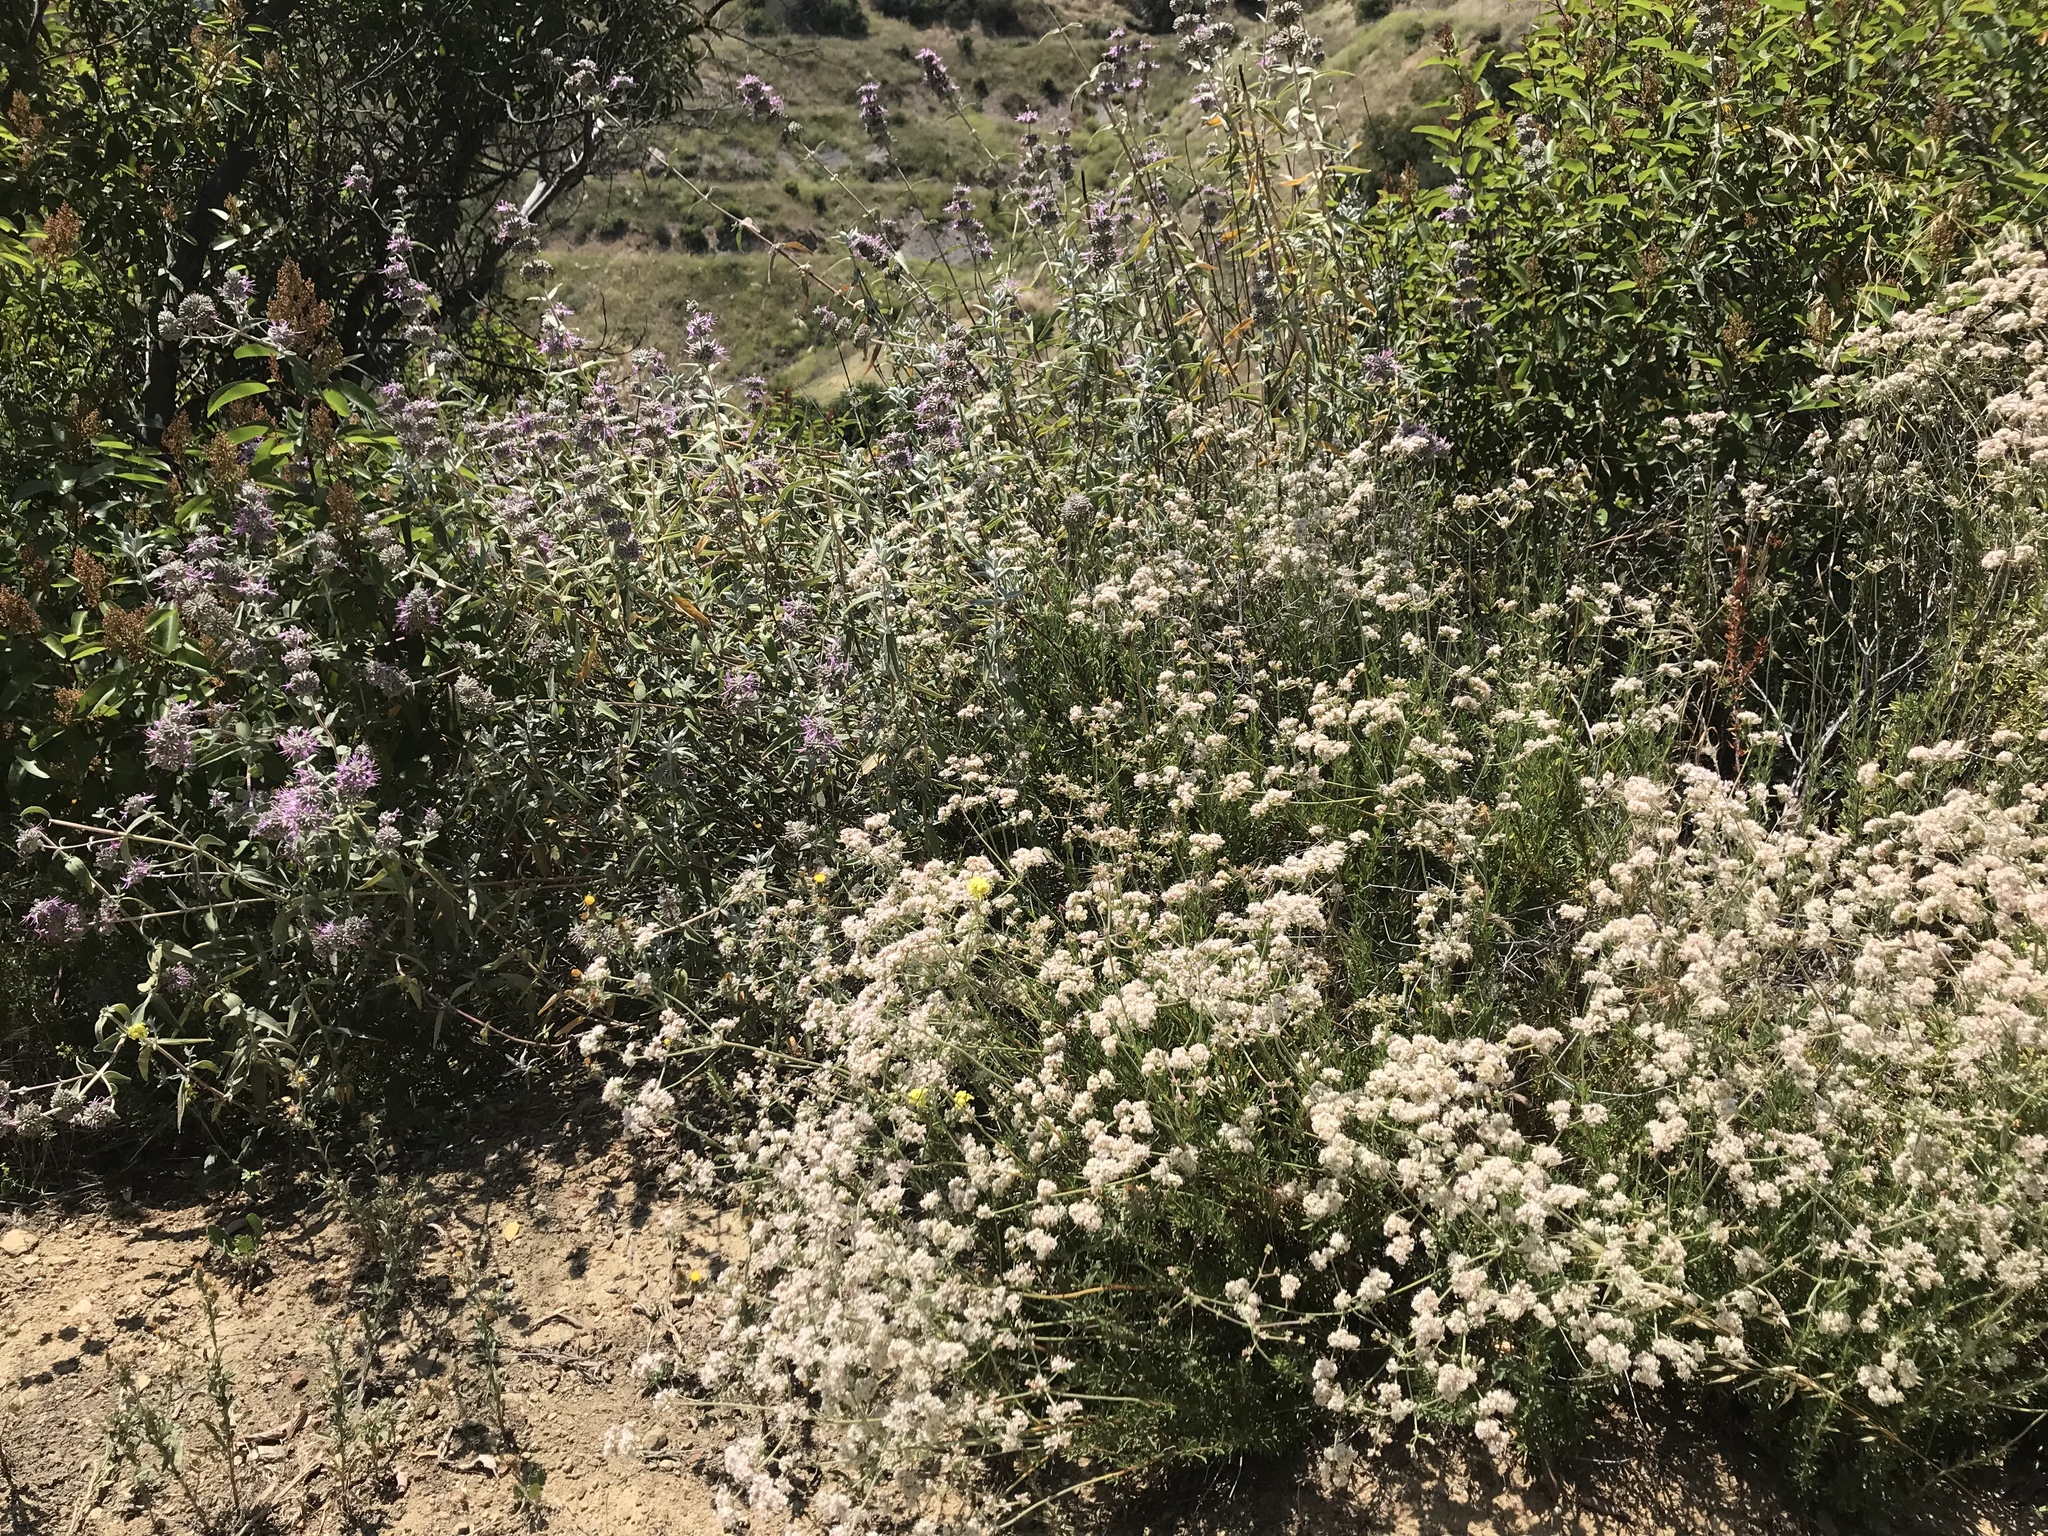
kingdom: Plantae
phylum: Tracheophyta
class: Magnoliopsida
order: Lamiales
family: Lamiaceae
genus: Salvia
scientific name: Salvia leucophylla
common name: Purple sage
